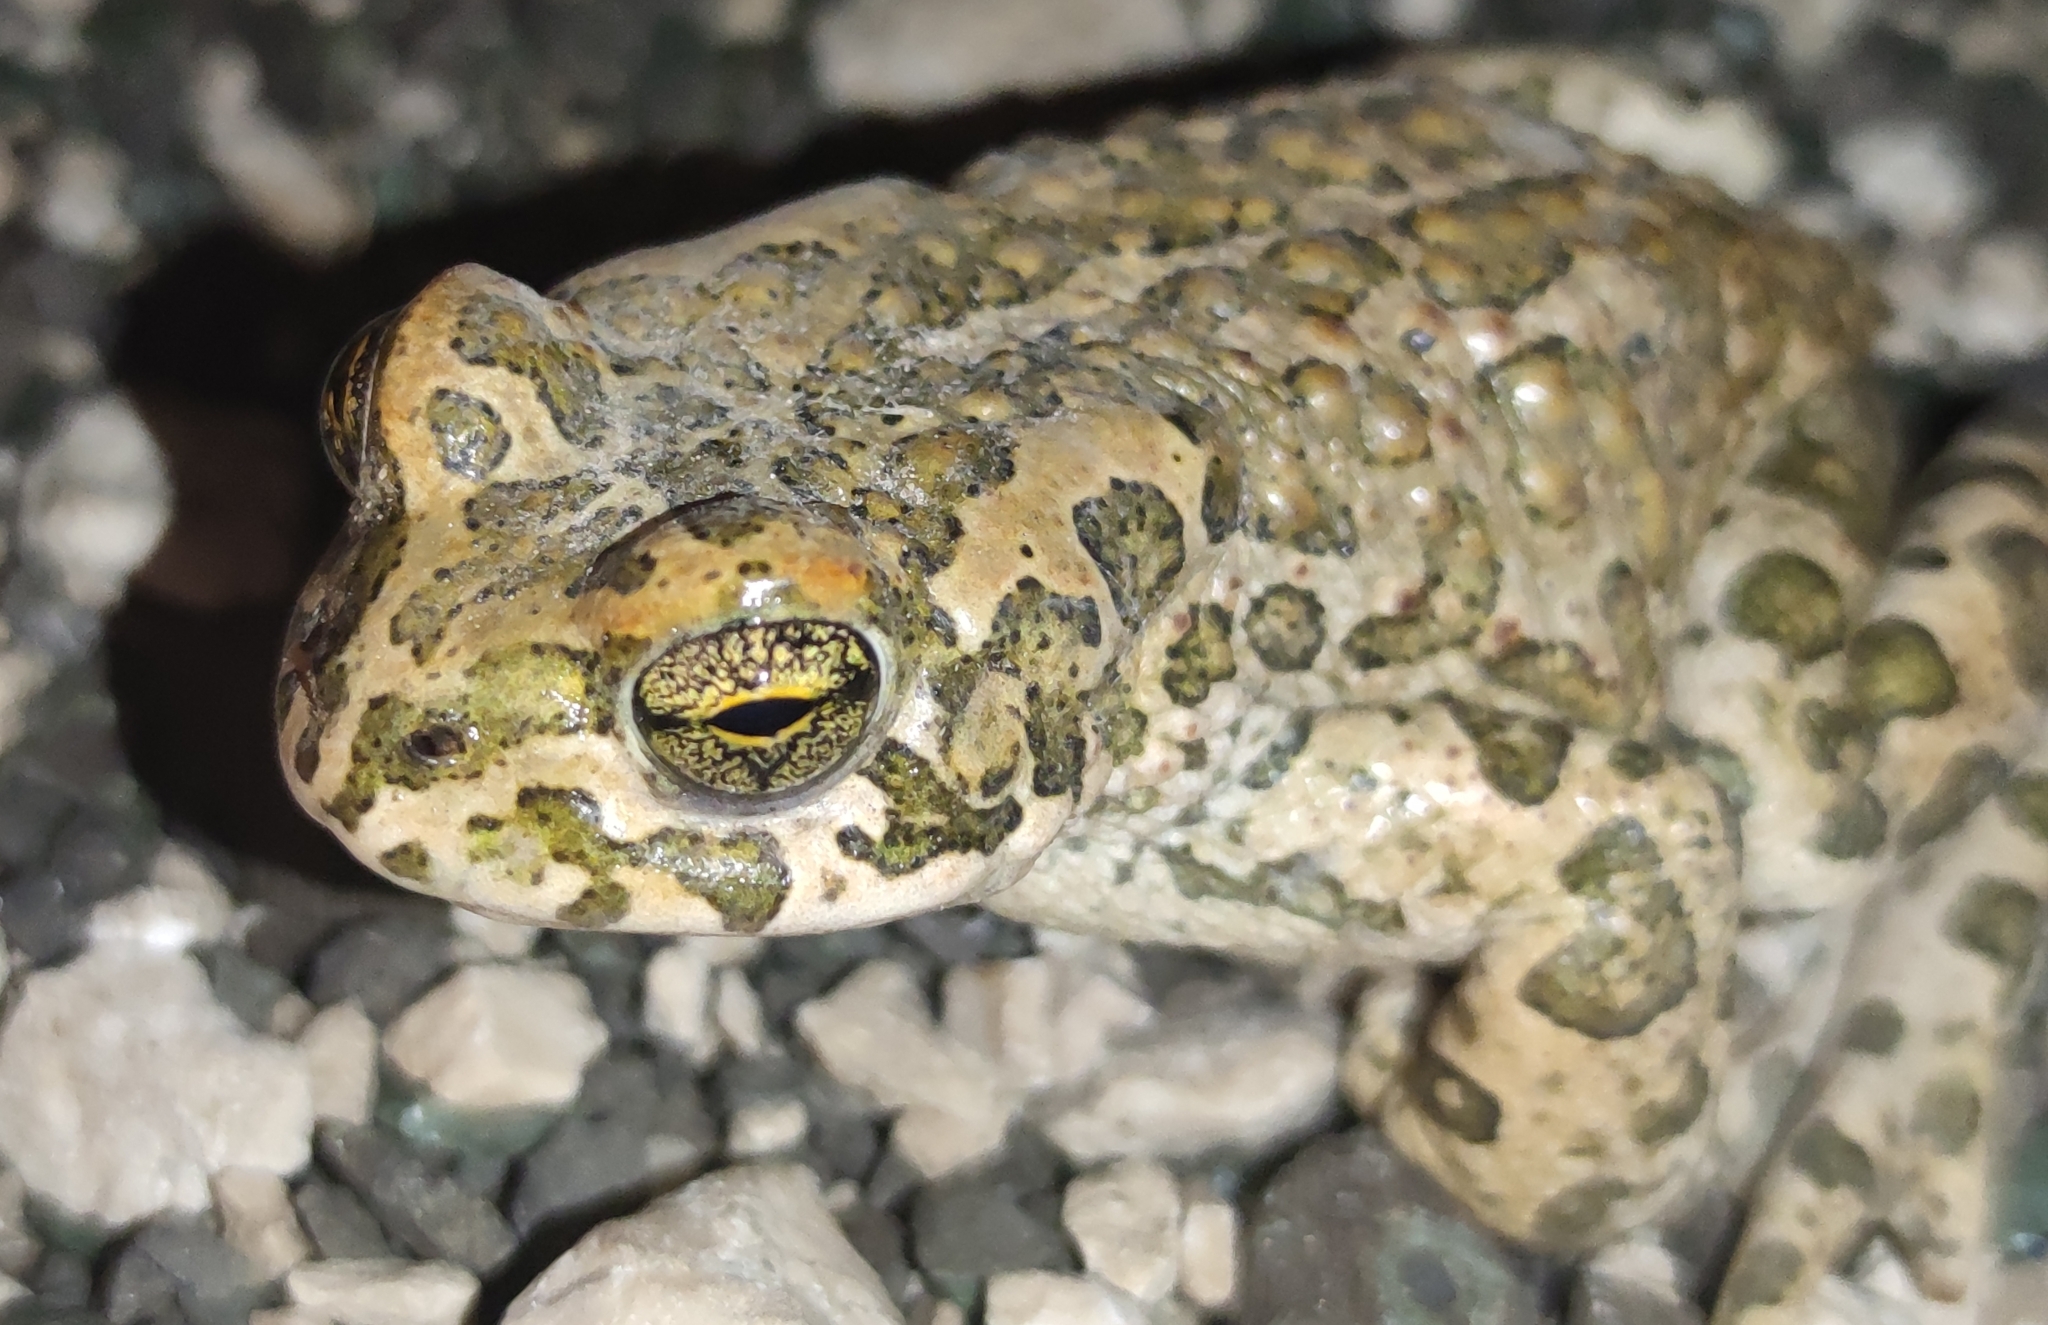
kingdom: Animalia
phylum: Chordata
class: Amphibia
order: Anura
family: Bufonidae
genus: Bufotes
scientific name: Bufotes viridis
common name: European green toad
